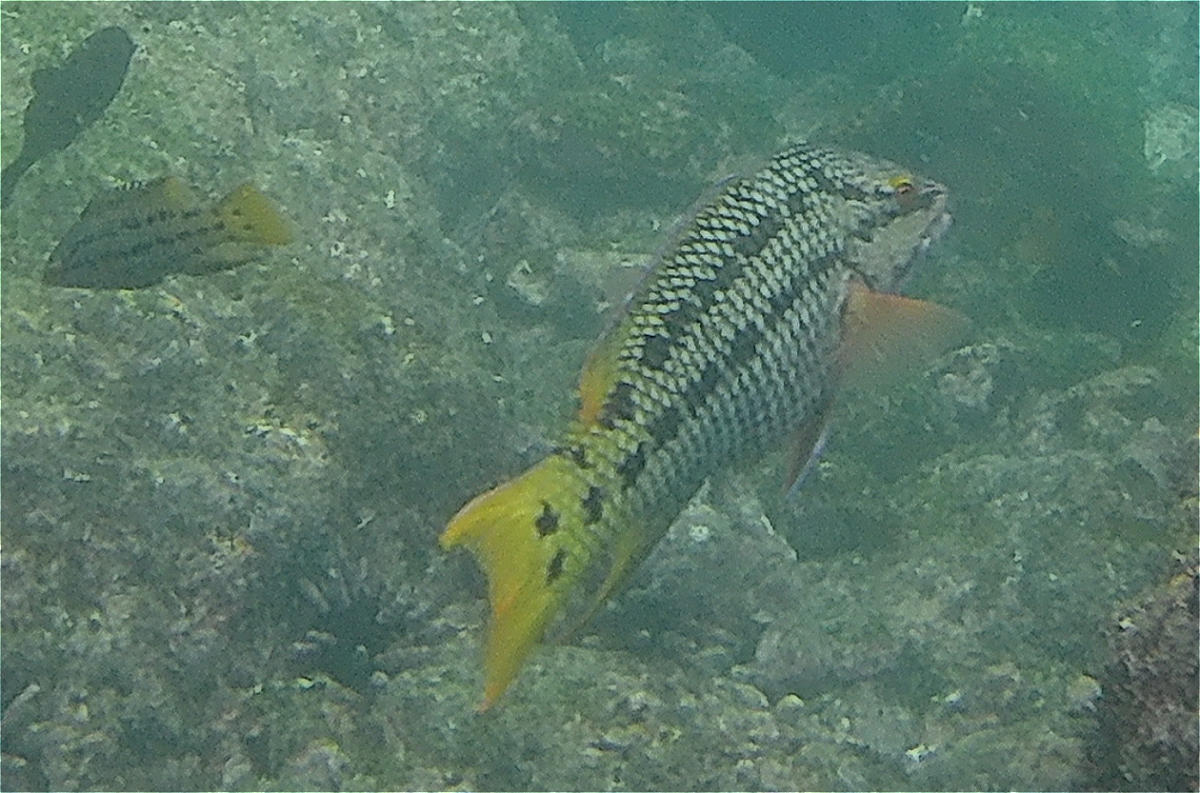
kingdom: Animalia
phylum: Chordata
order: Perciformes
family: Labridae
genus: Bodianus
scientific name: Bodianus diplotaenia
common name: Mexican hogfish
